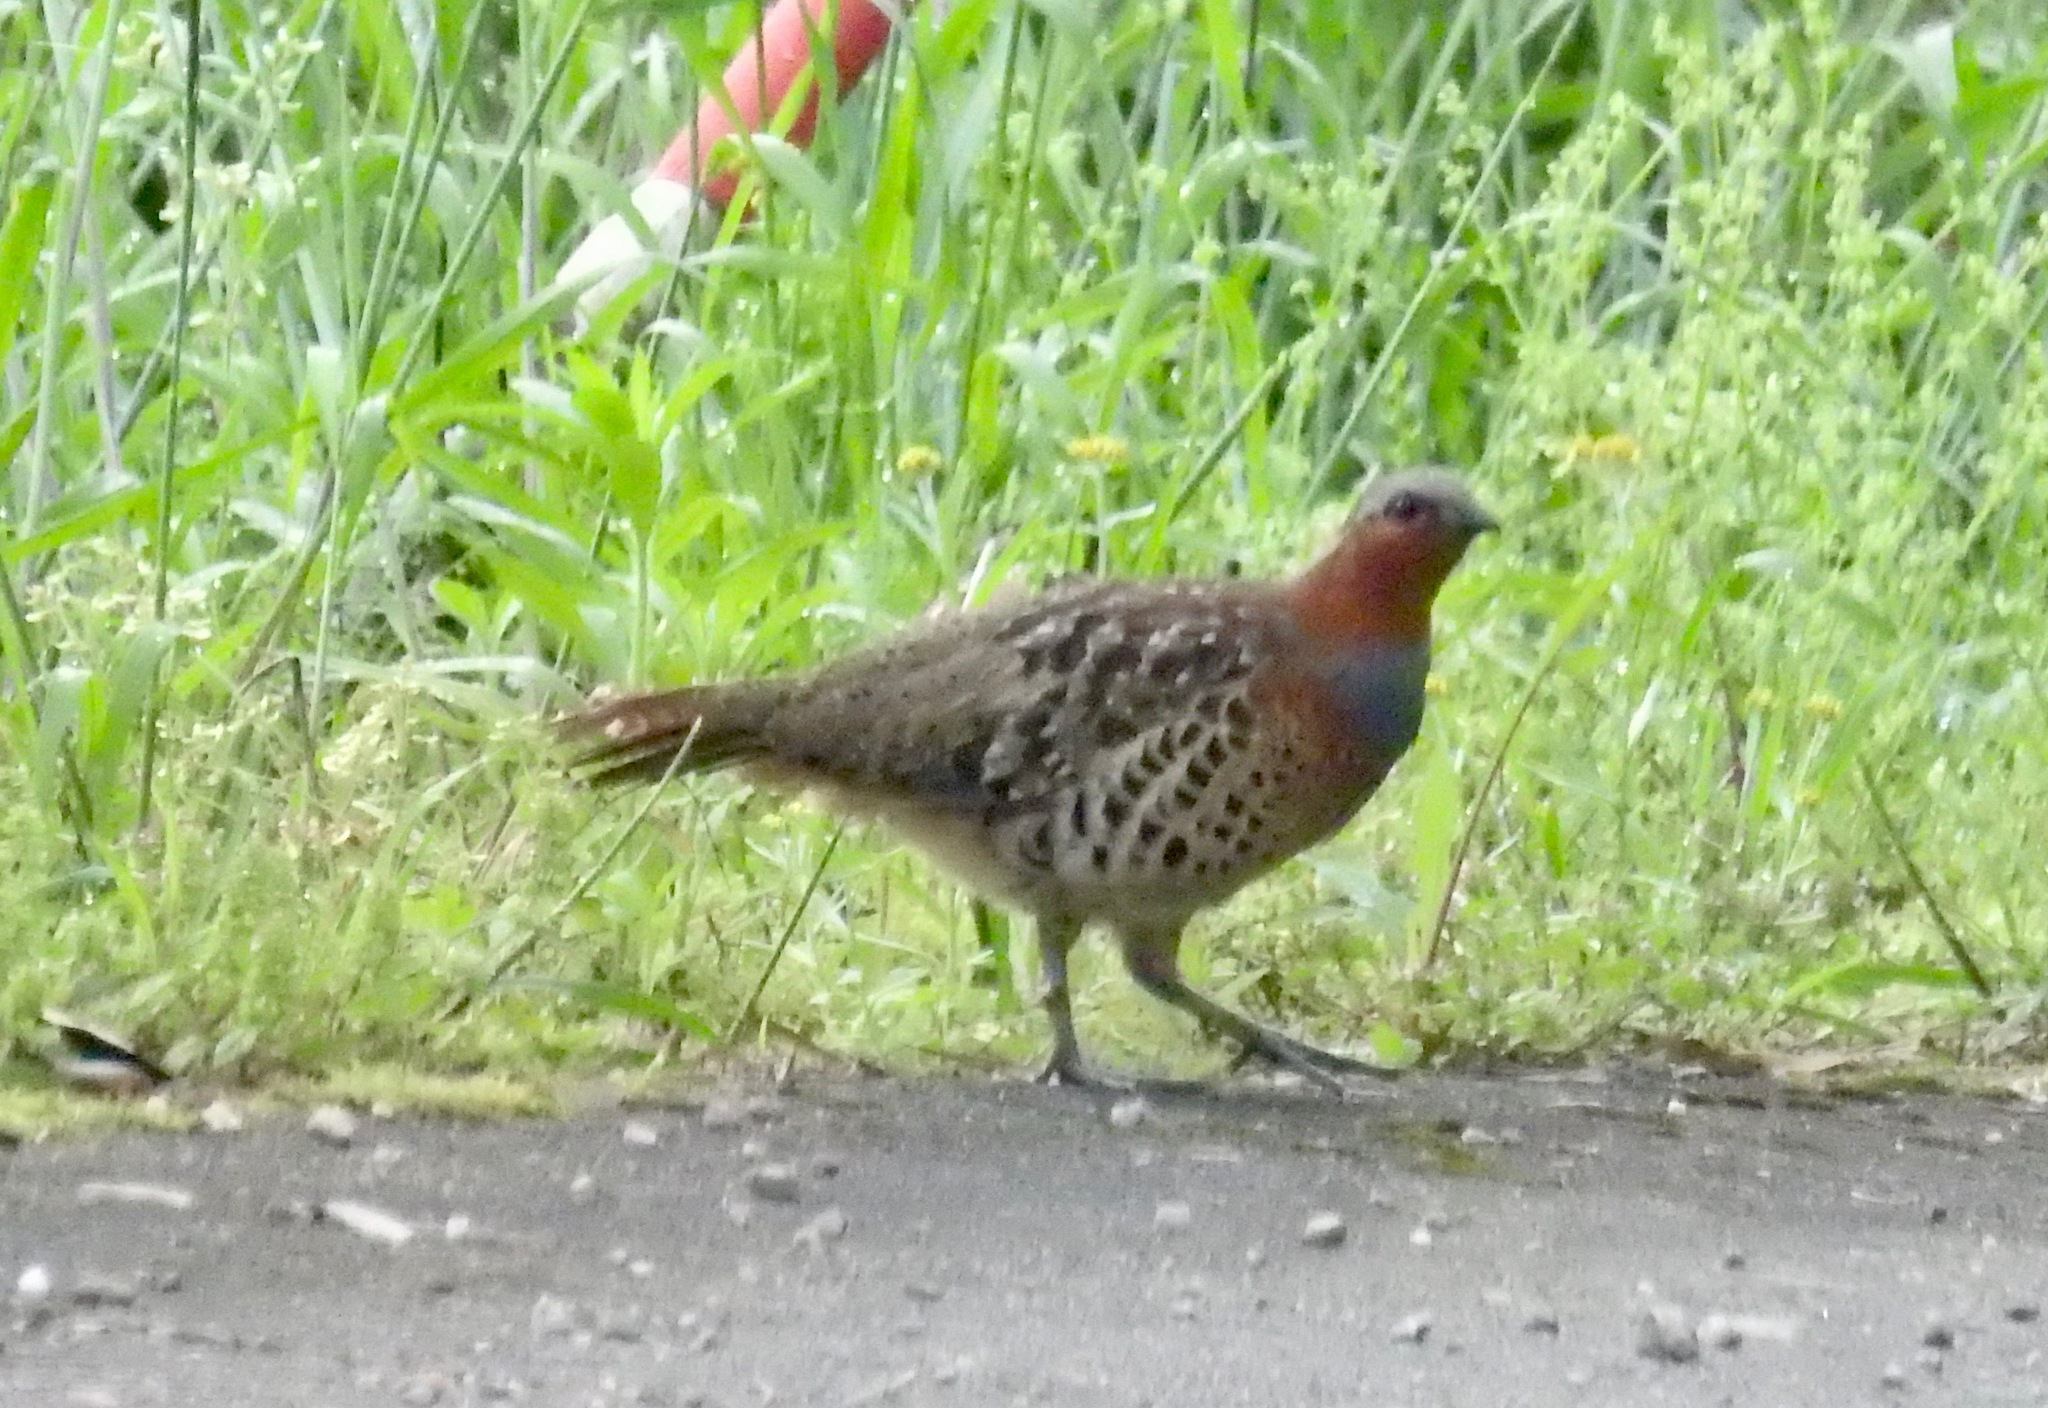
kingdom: Animalia
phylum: Chordata
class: Aves
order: Galliformes
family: Phasianidae
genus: Bambusicola
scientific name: Bambusicola thoracicus
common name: Chinese bamboo partridge
